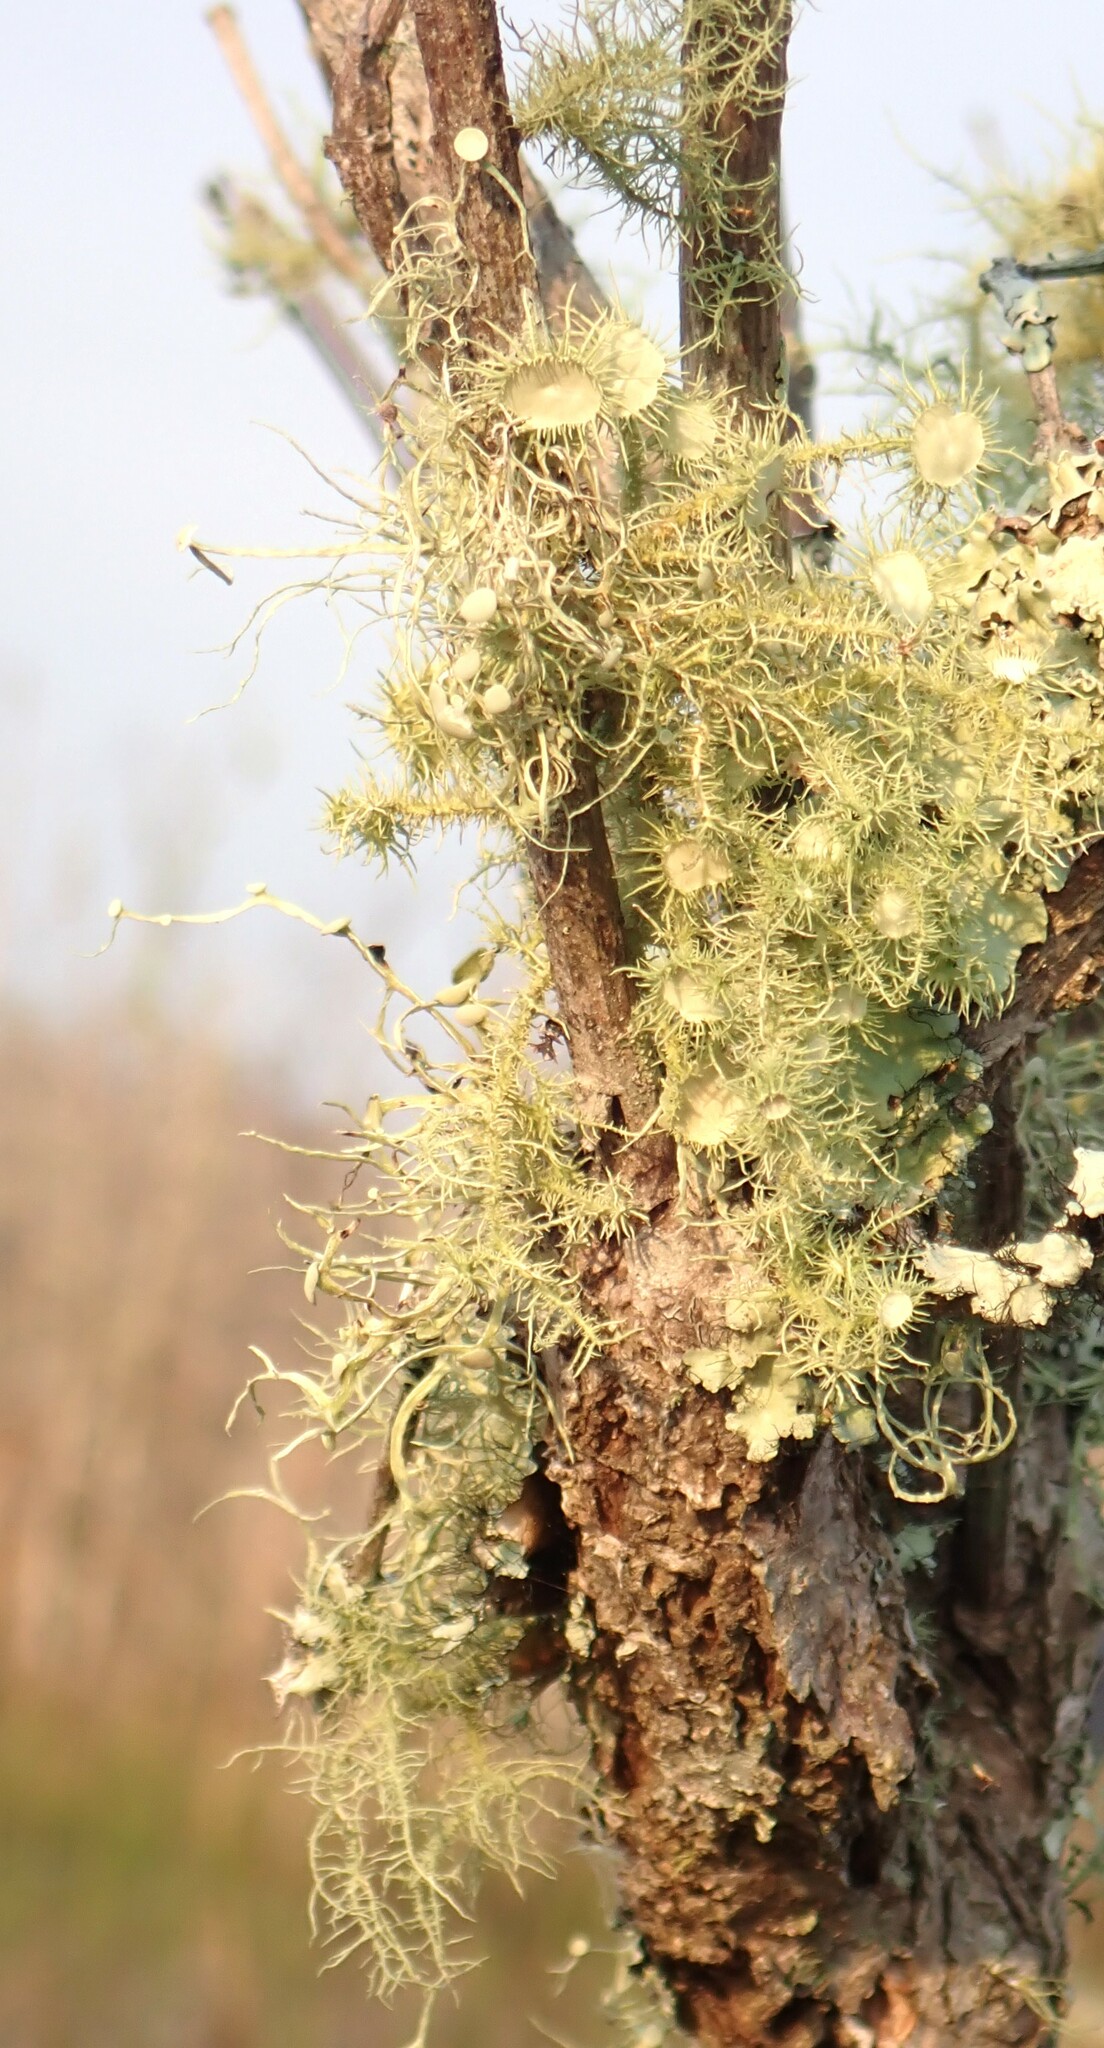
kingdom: Fungi
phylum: Ascomycota
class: Lecanoromycetes
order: Lecanorales
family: Parmeliaceae
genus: Usnea
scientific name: Usnea strigosa
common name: Bushy beard lichen
